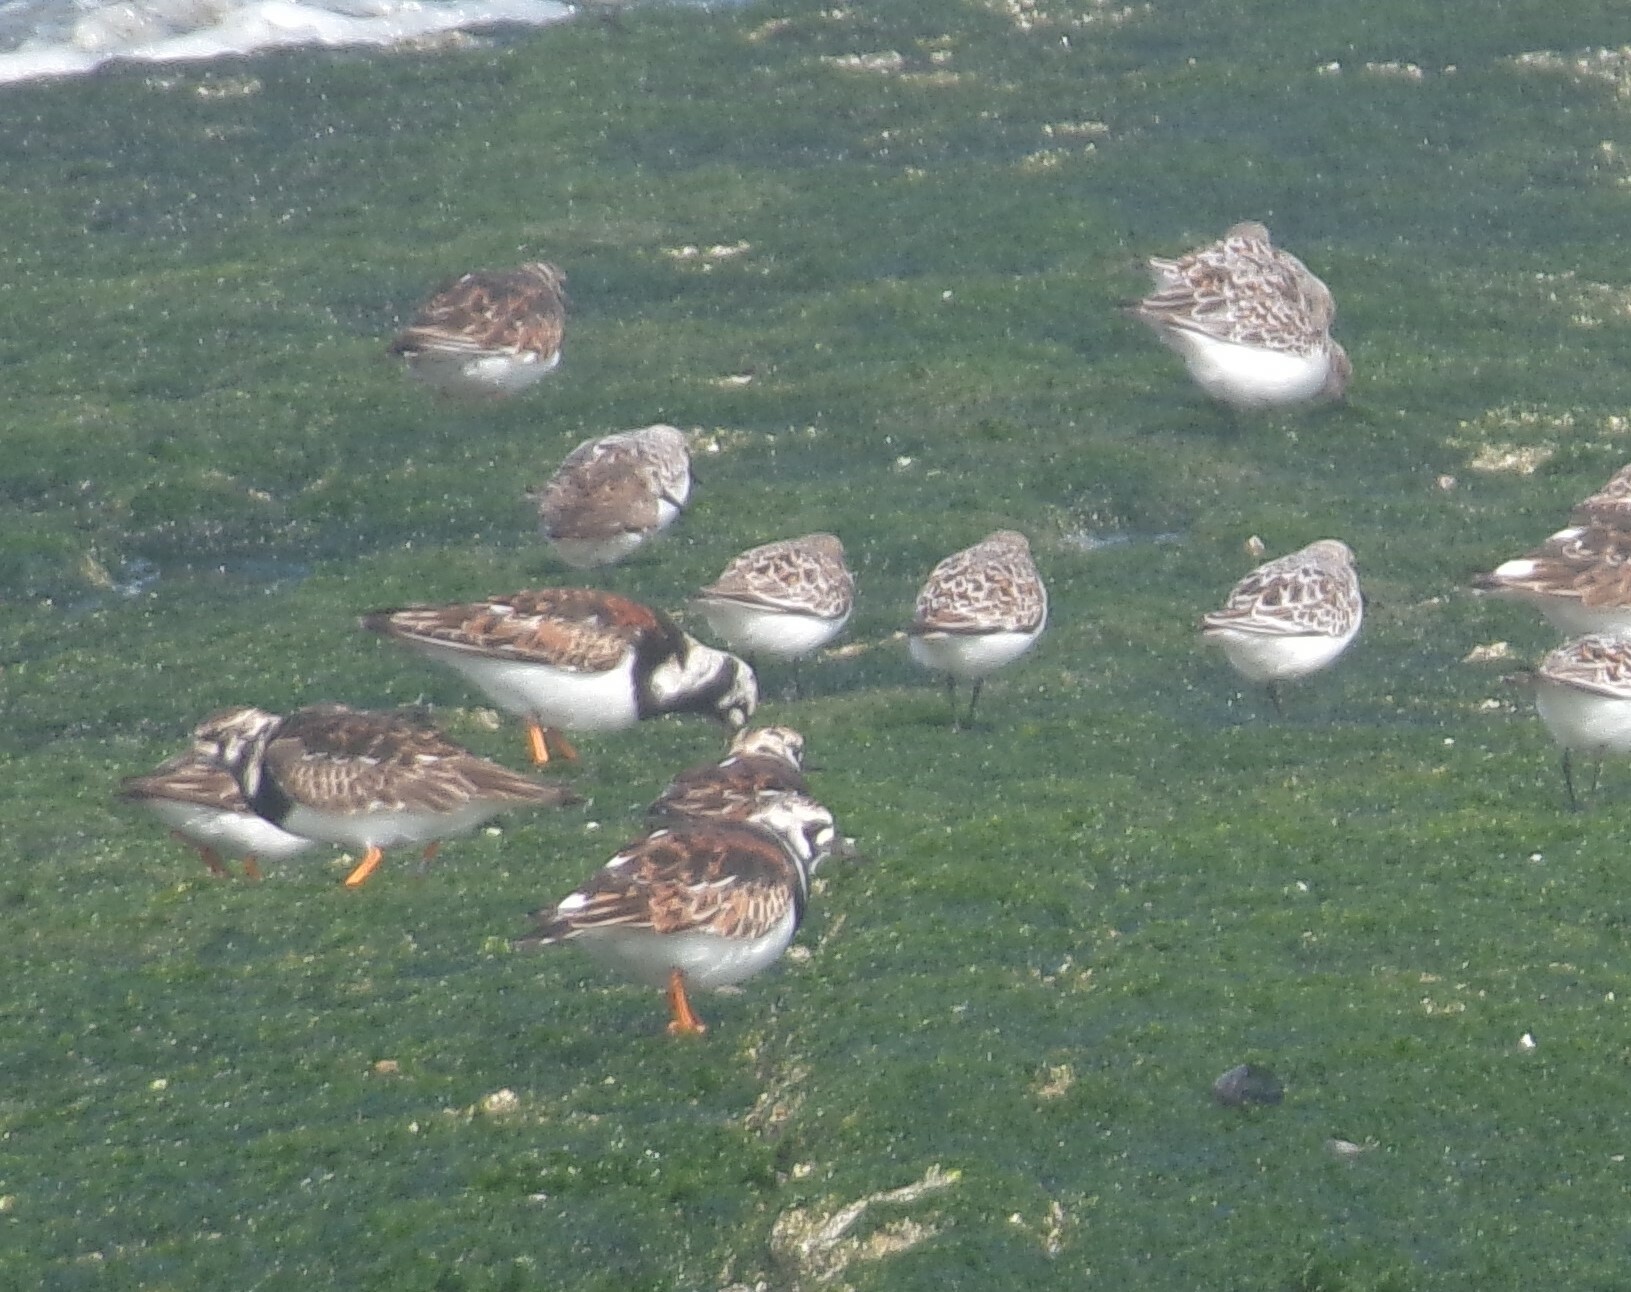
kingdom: Animalia
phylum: Chordata
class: Aves
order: Charadriiformes
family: Scolopacidae
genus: Arenaria
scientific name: Arenaria interpres
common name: Ruddy turnstone
